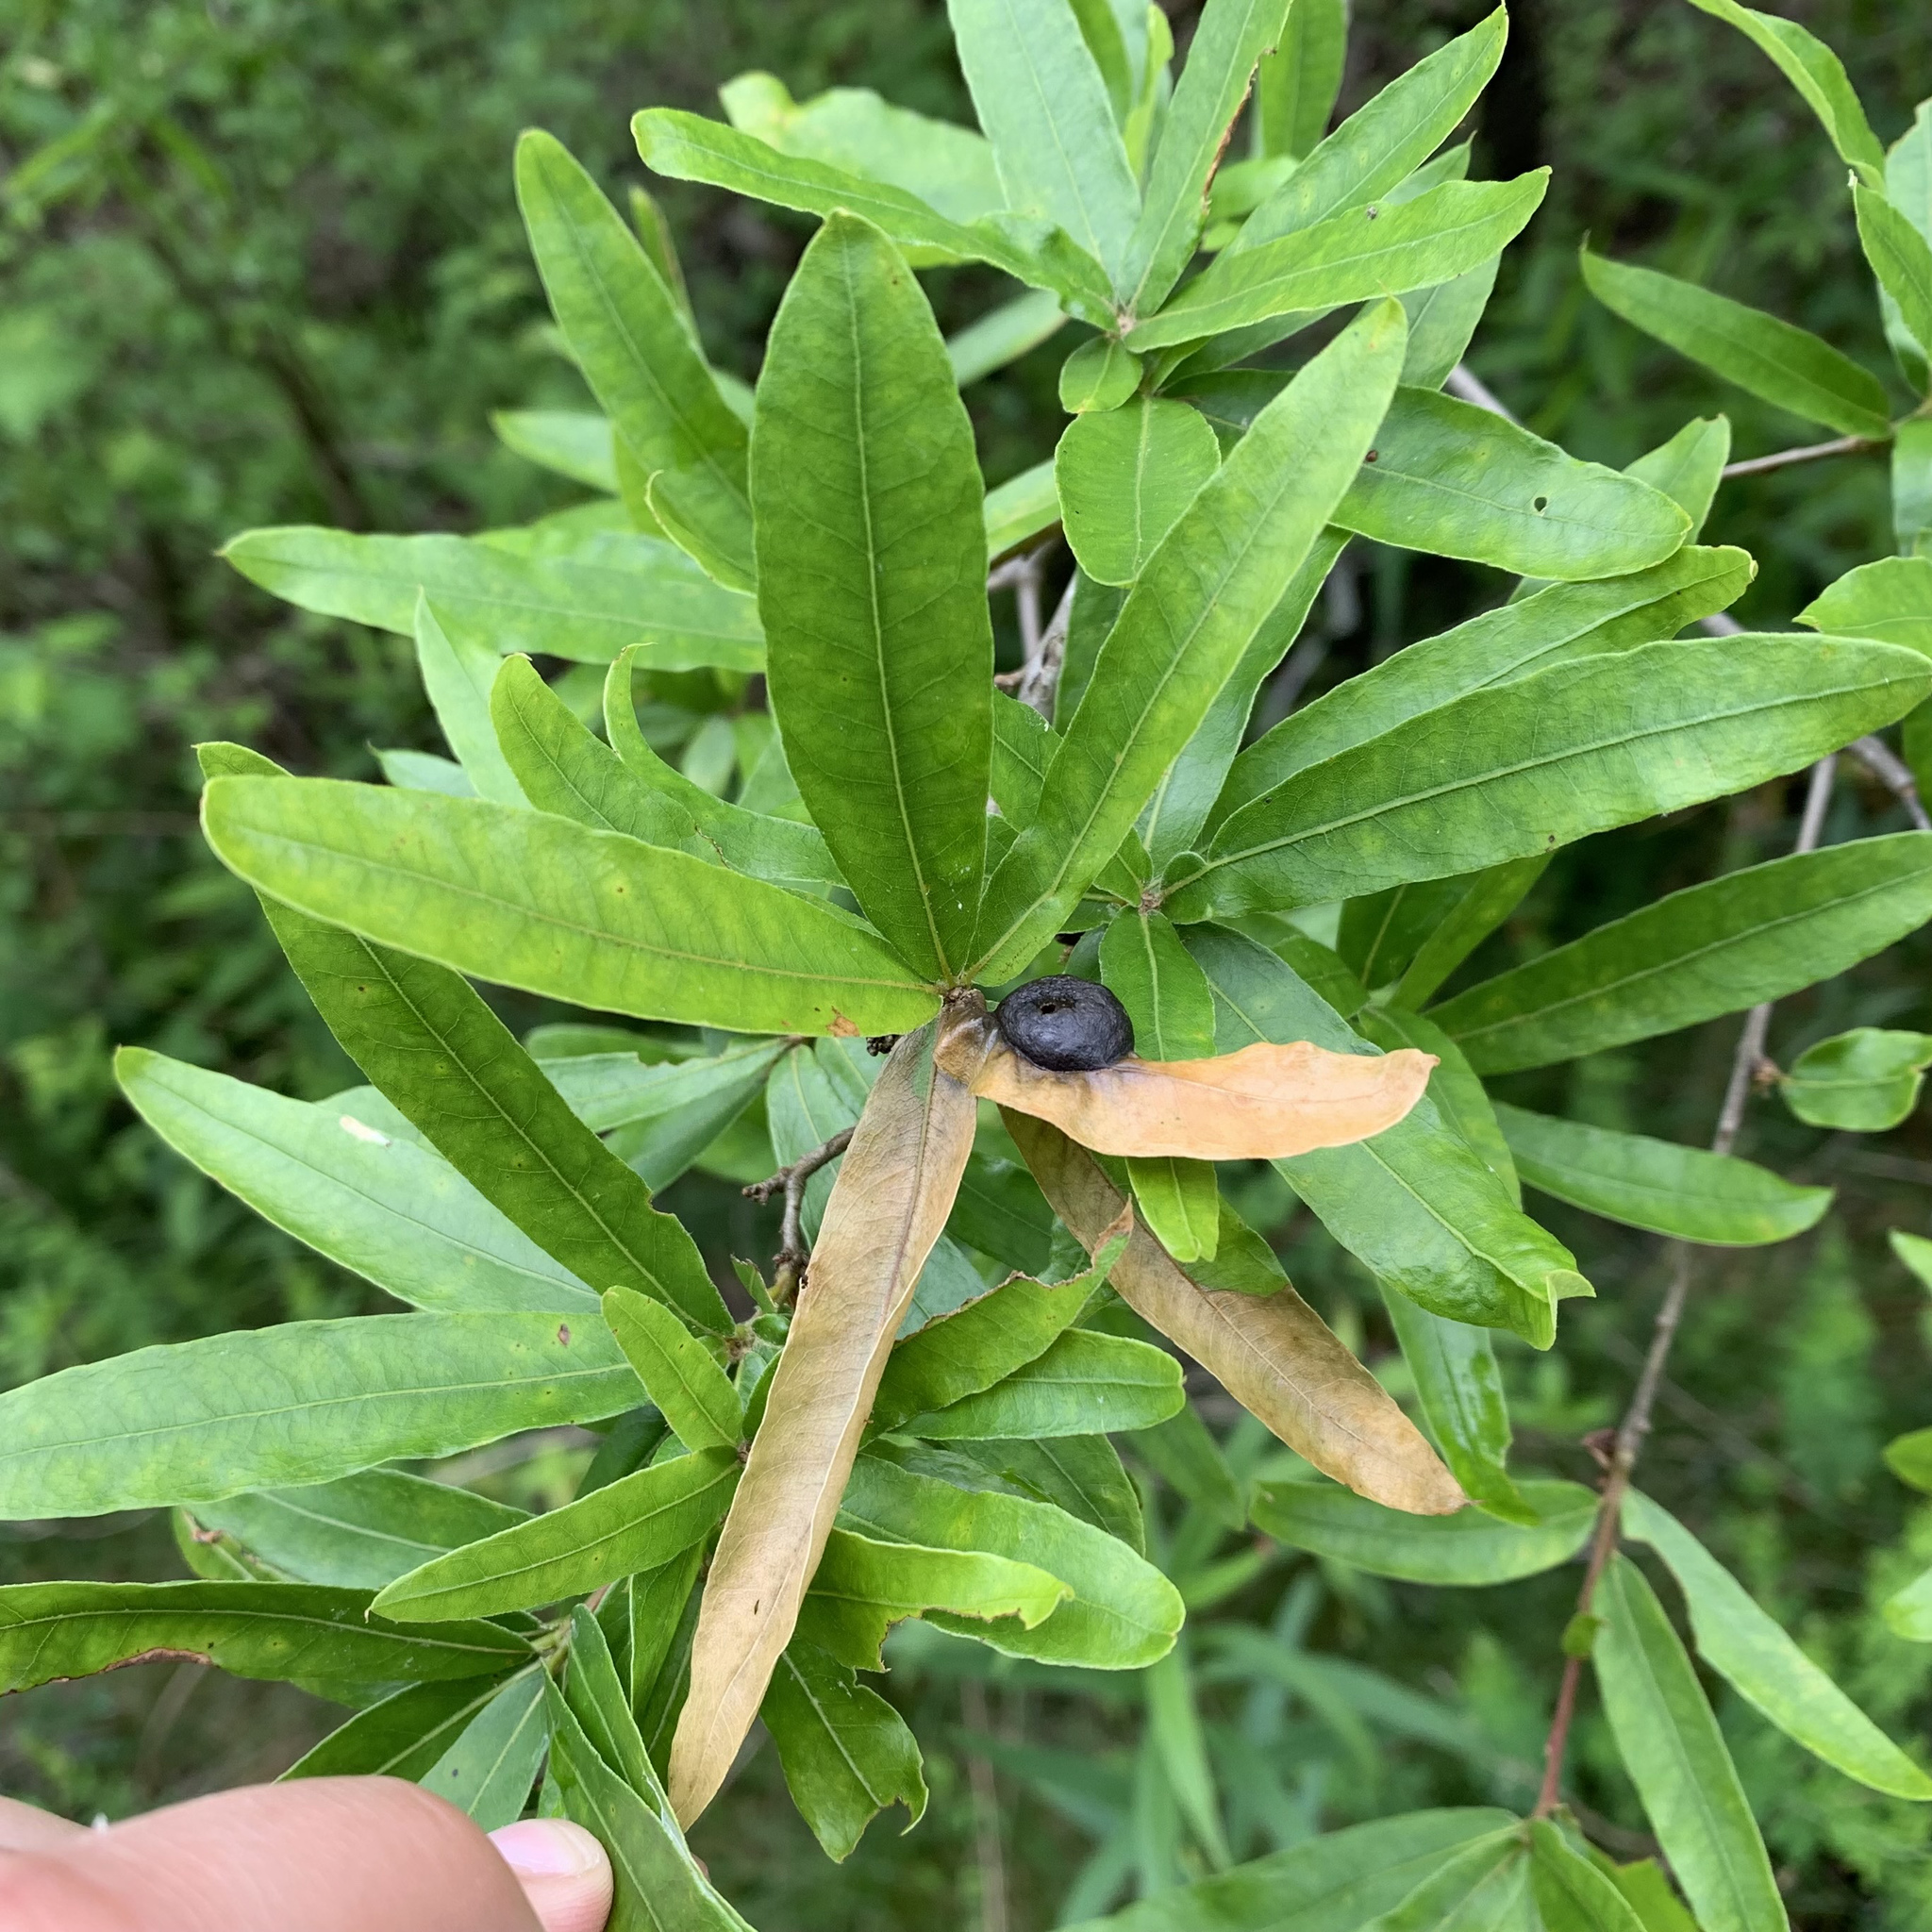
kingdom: Plantae
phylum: Tracheophyta
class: Magnoliopsida
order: Fagales
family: Fagaceae
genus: Quercus
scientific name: Quercus phellos
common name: Willow oak
